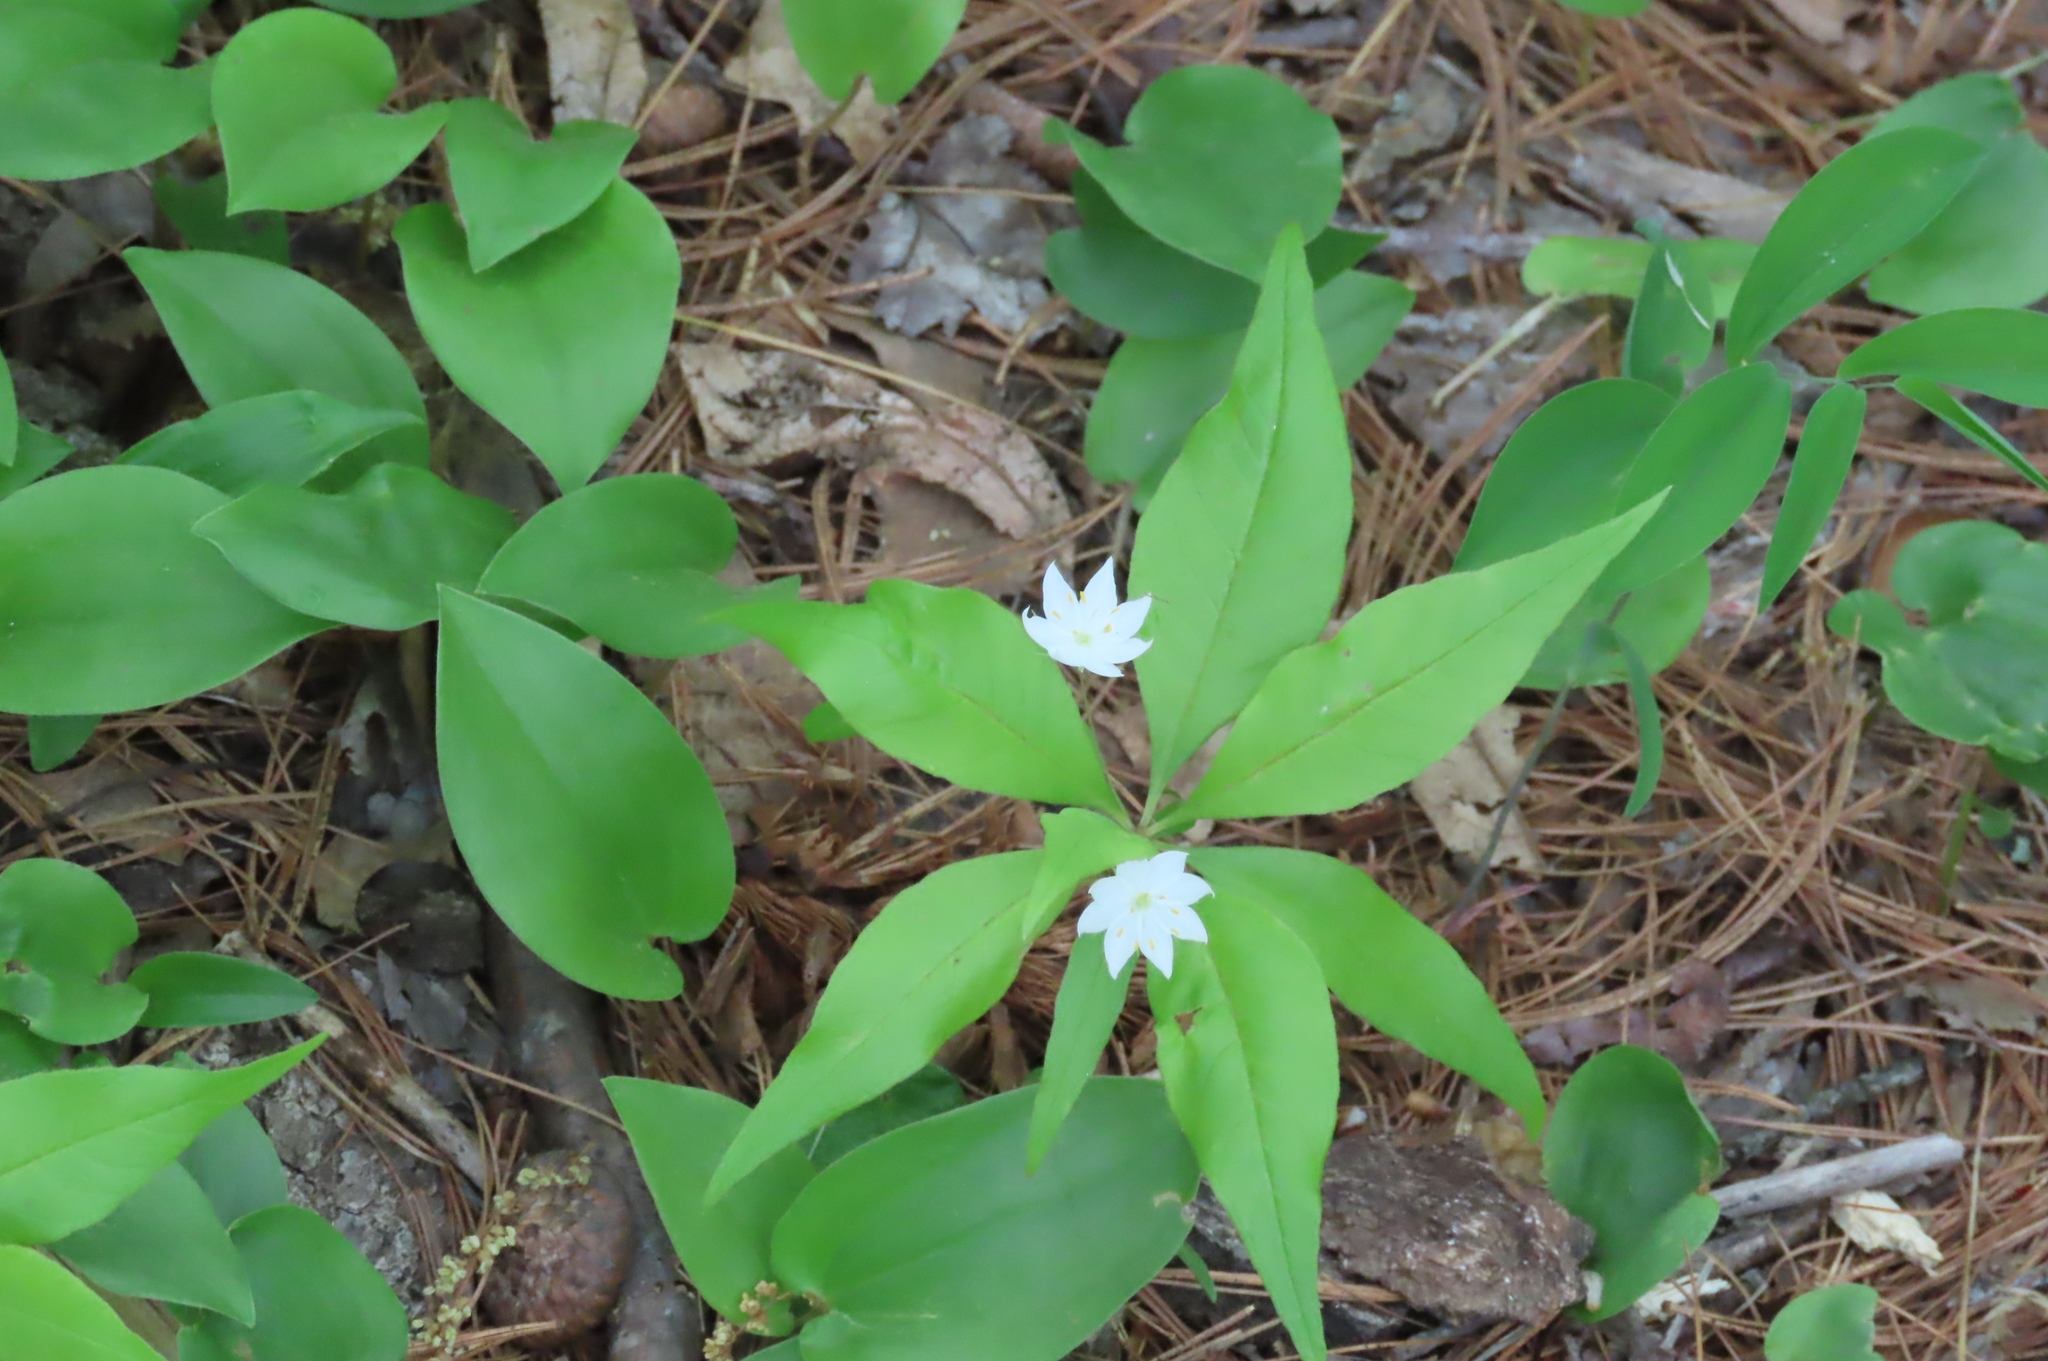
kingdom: Plantae
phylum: Tracheophyta
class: Magnoliopsida
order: Ericales
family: Primulaceae
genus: Lysimachia
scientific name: Lysimachia borealis
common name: American starflower
